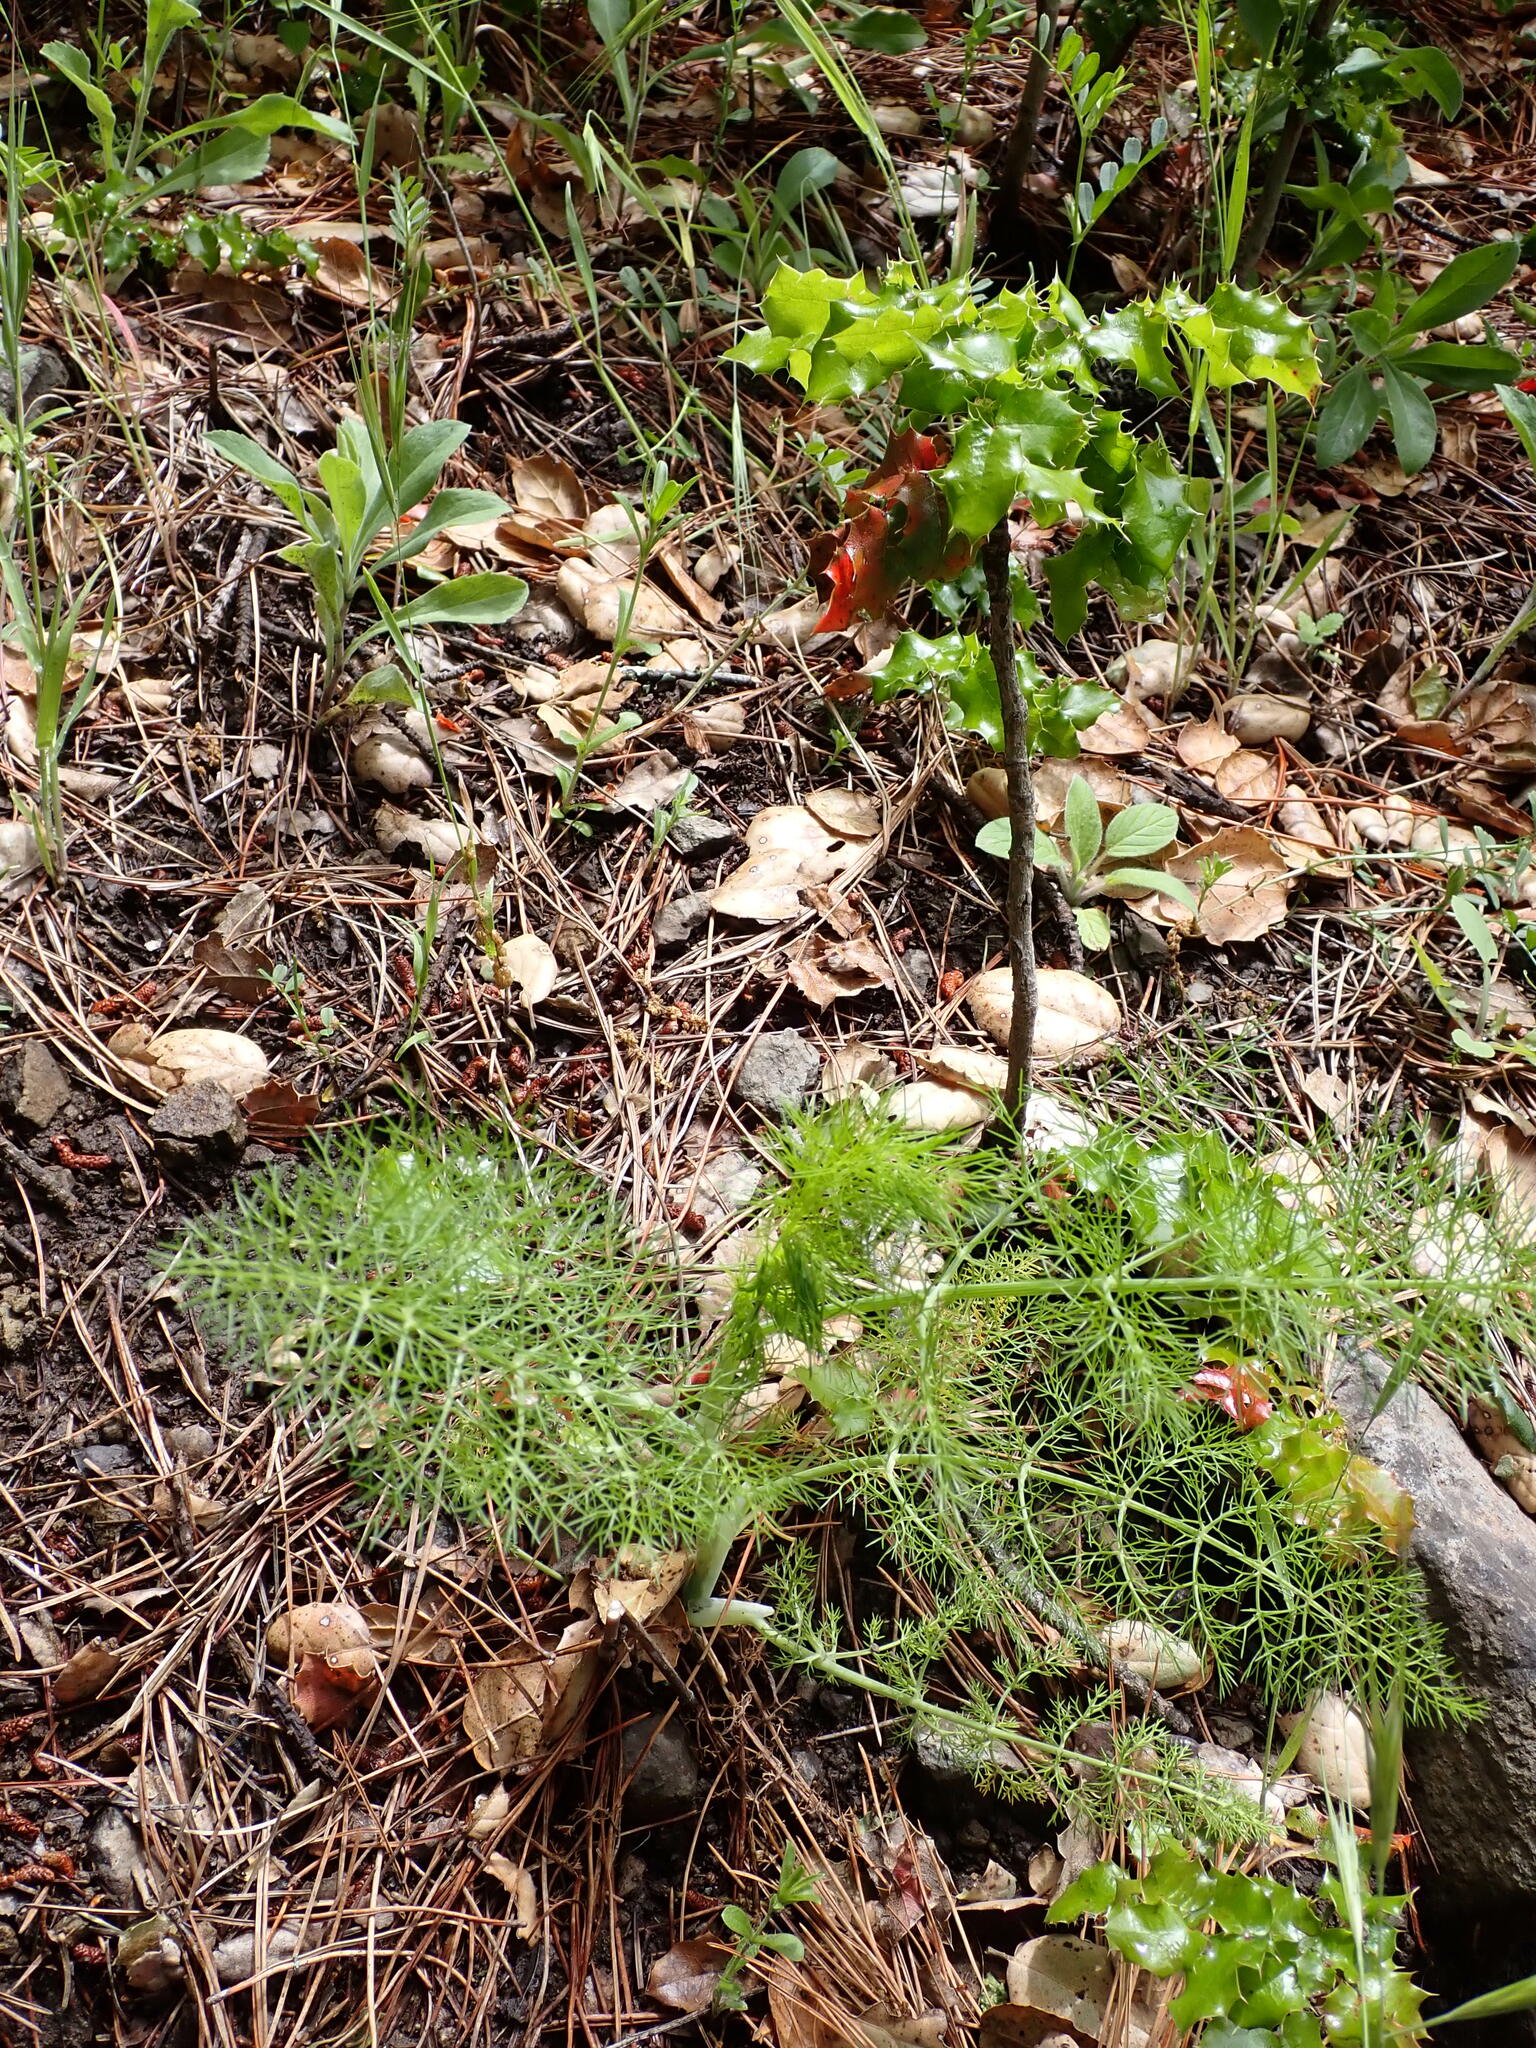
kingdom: Plantae
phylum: Tracheophyta
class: Magnoliopsida
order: Apiales
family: Apiaceae
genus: Foeniculum
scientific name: Foeniculum vulgare
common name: Fennel
